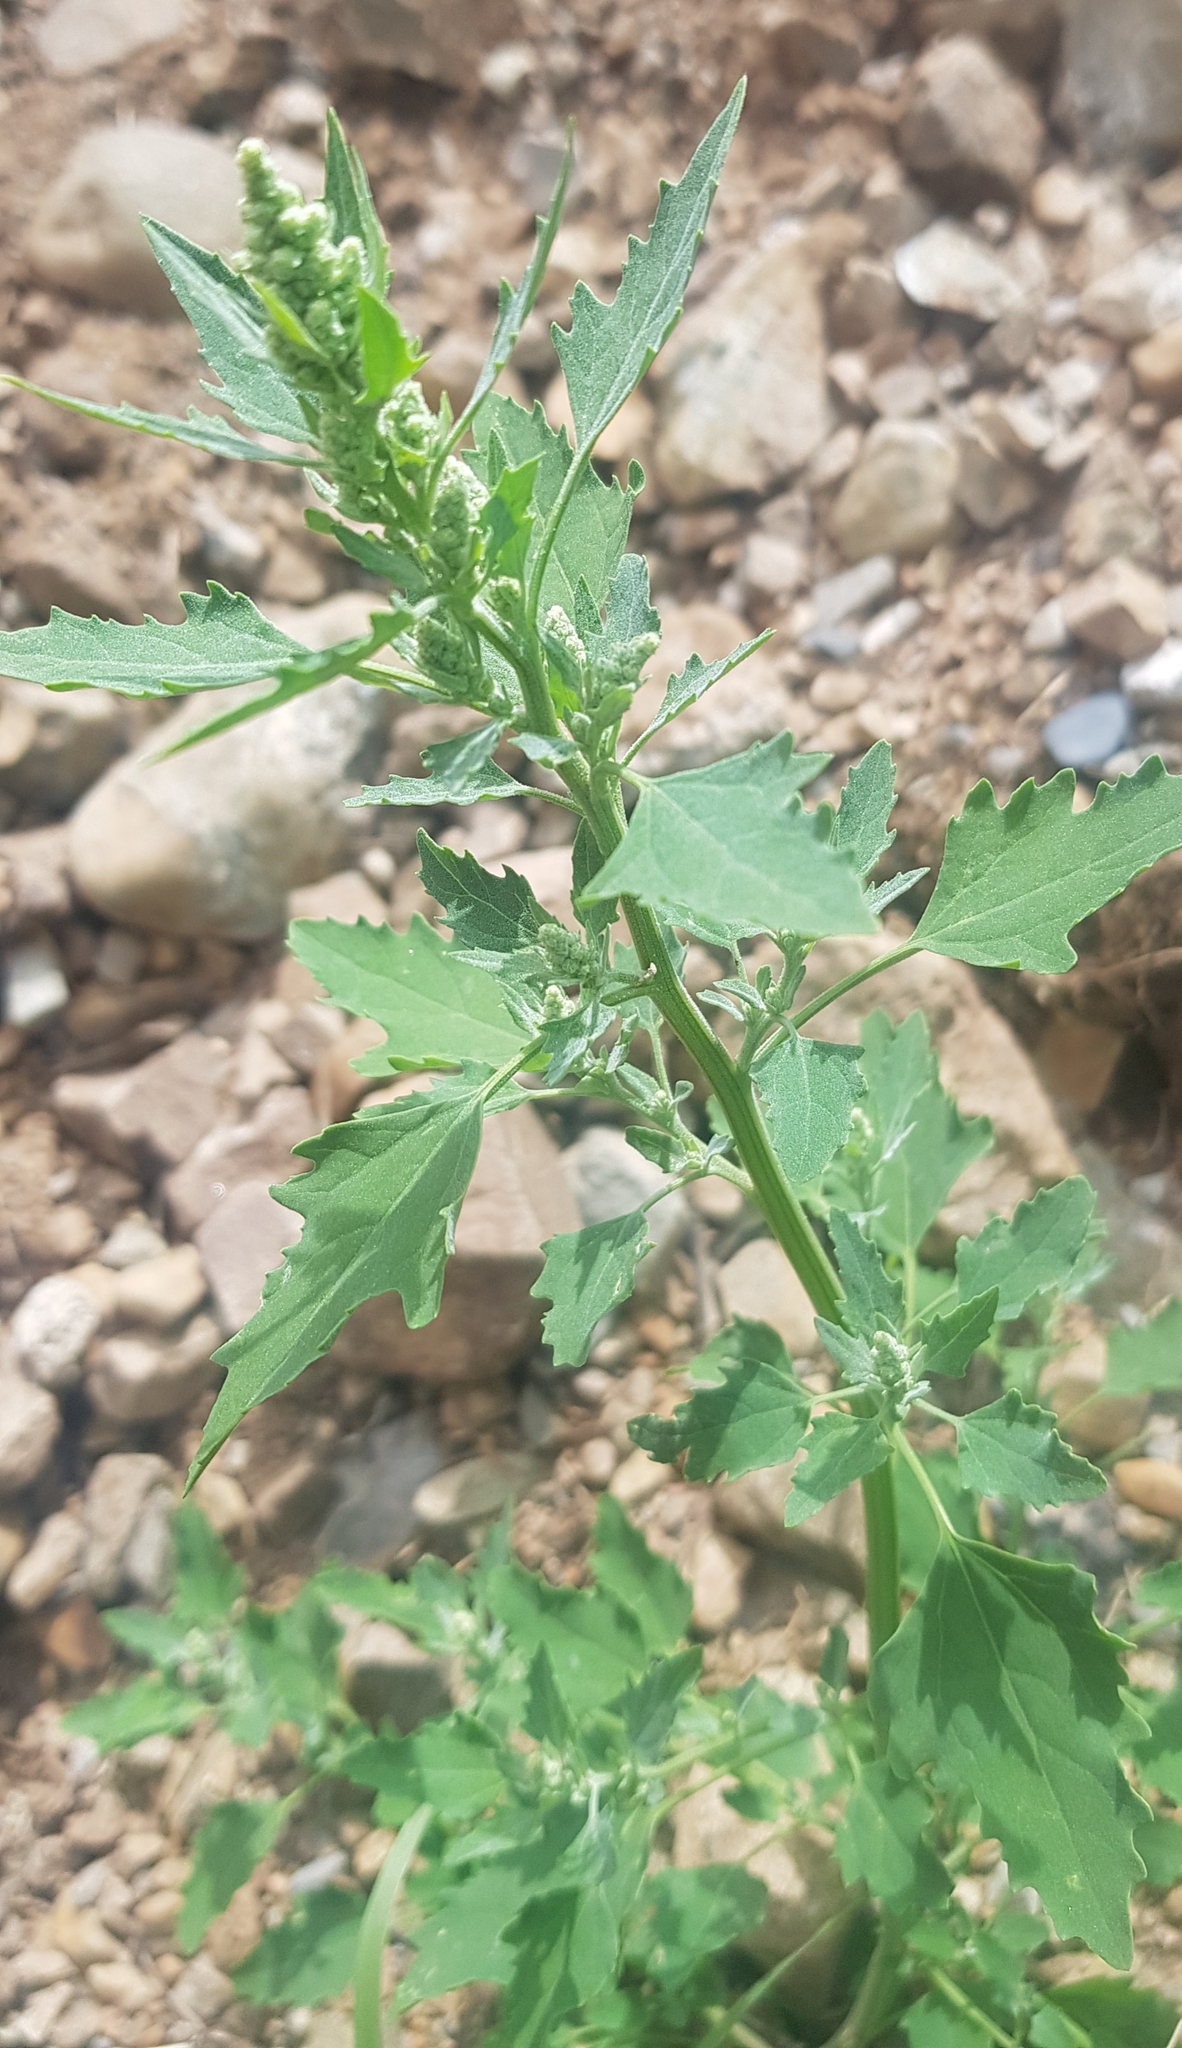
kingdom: Plantae
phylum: Tracheophyta
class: Magnoliopsida
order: Caryophyllales
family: Amaranthaceae
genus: Chenopodium
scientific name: Chenopodium album
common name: Fat-hen
